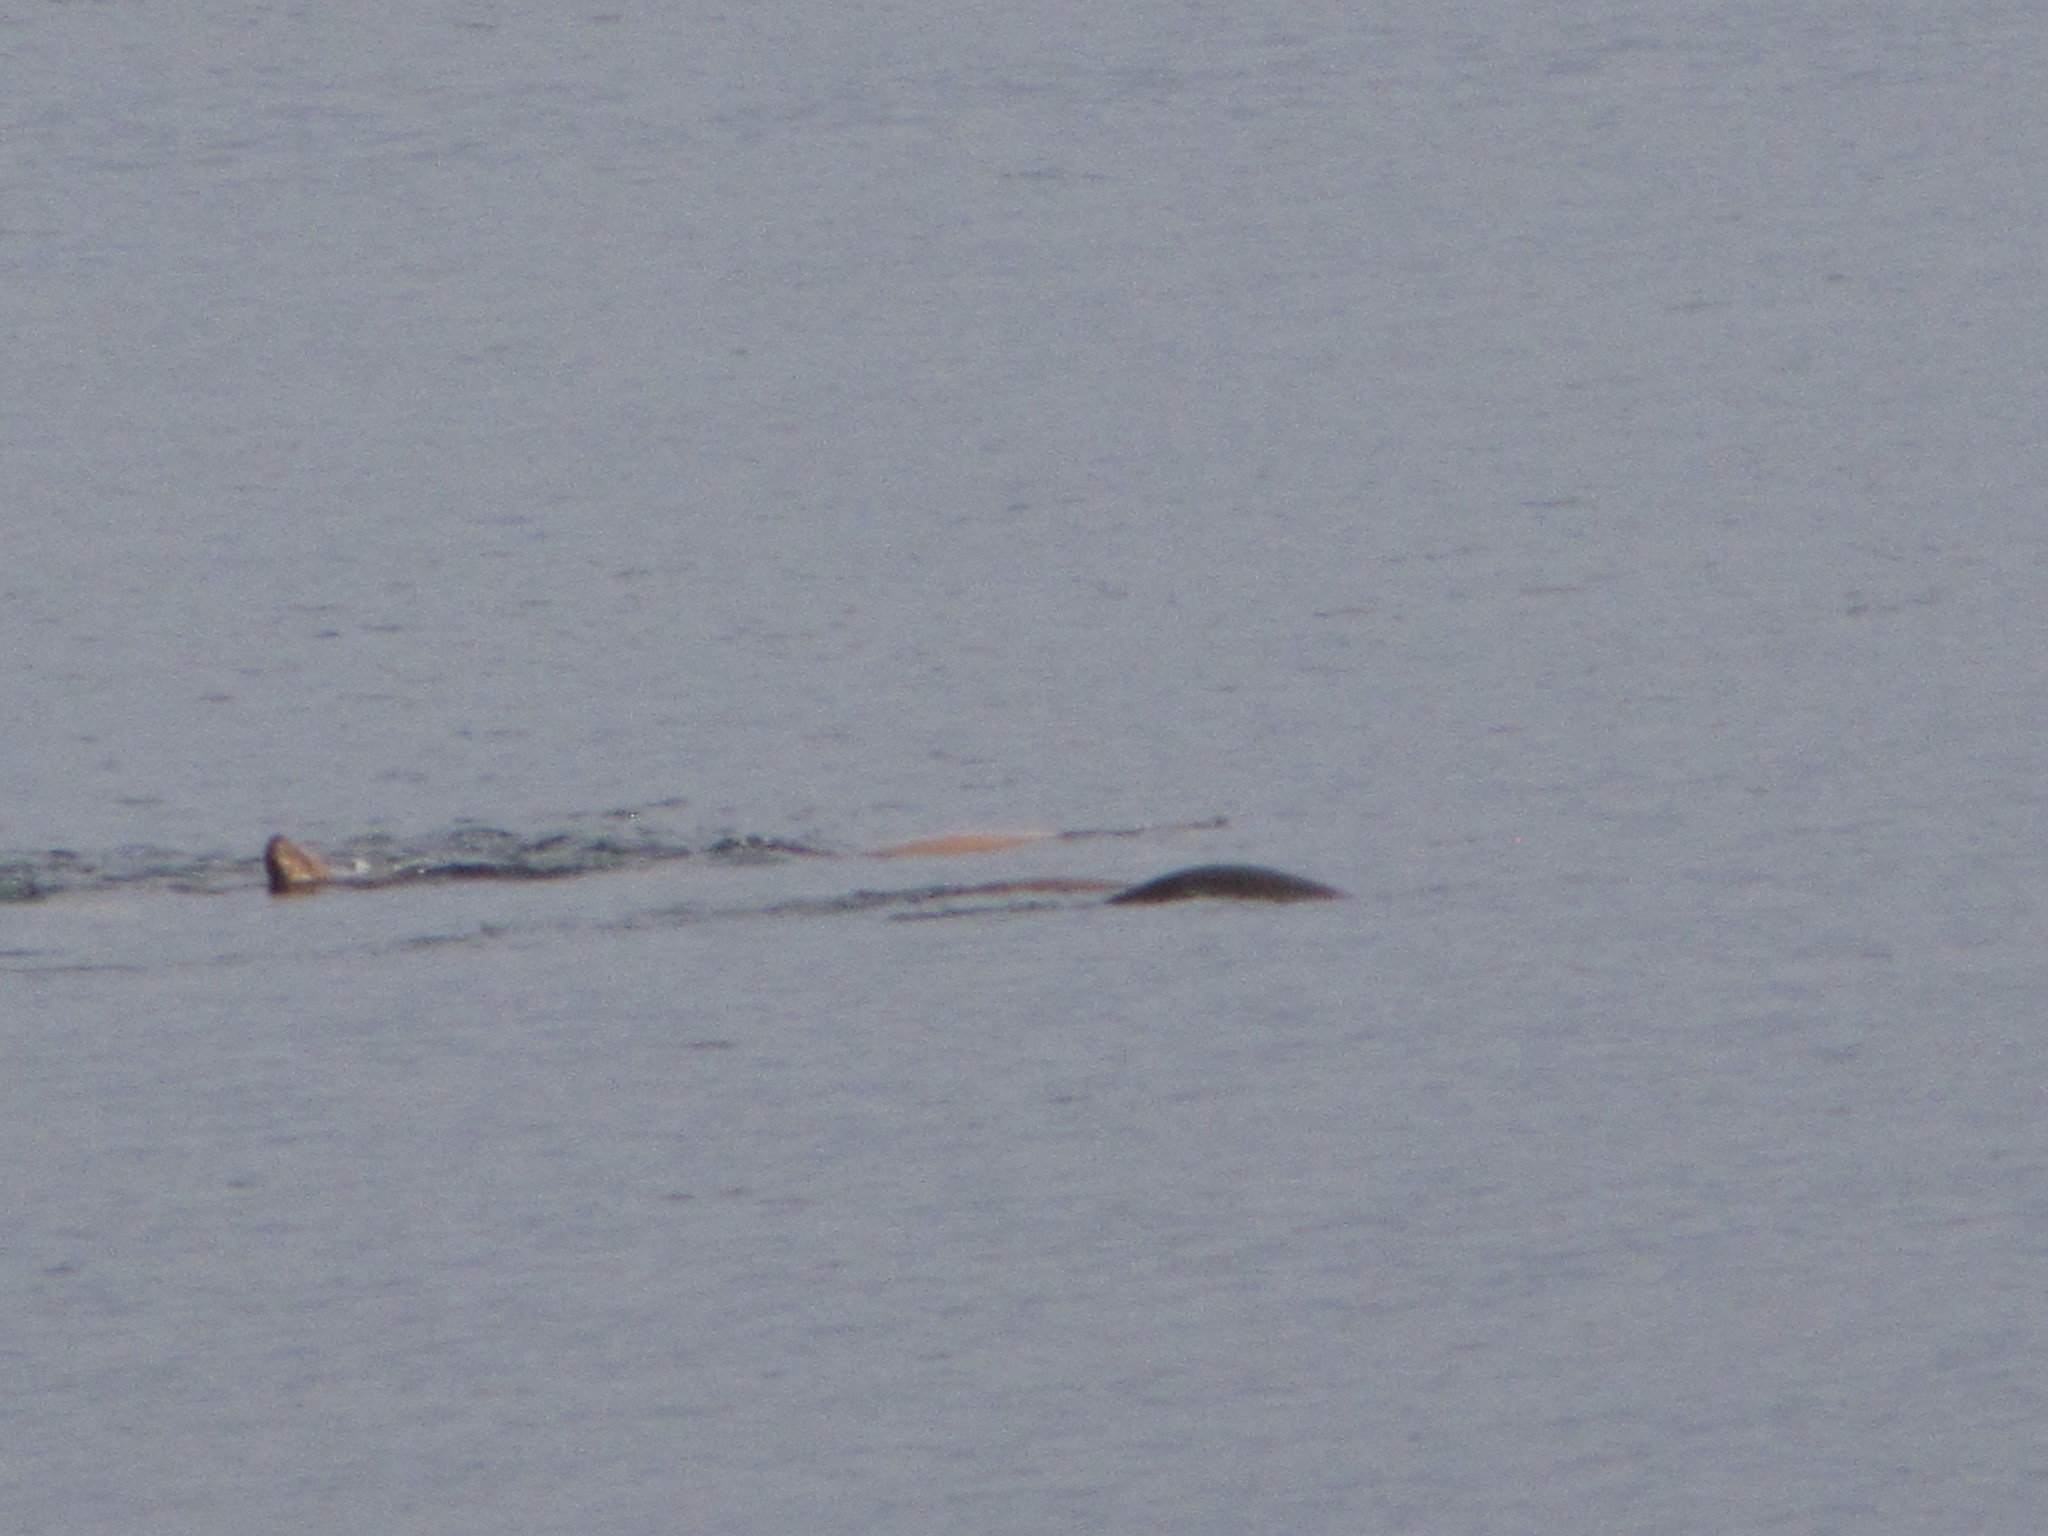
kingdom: Animalia
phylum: Chordata
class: Mammalia
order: Carnivora
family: Otariidae
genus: Eumetopias
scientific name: Eumetopias jubatus
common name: Steller sea lion
